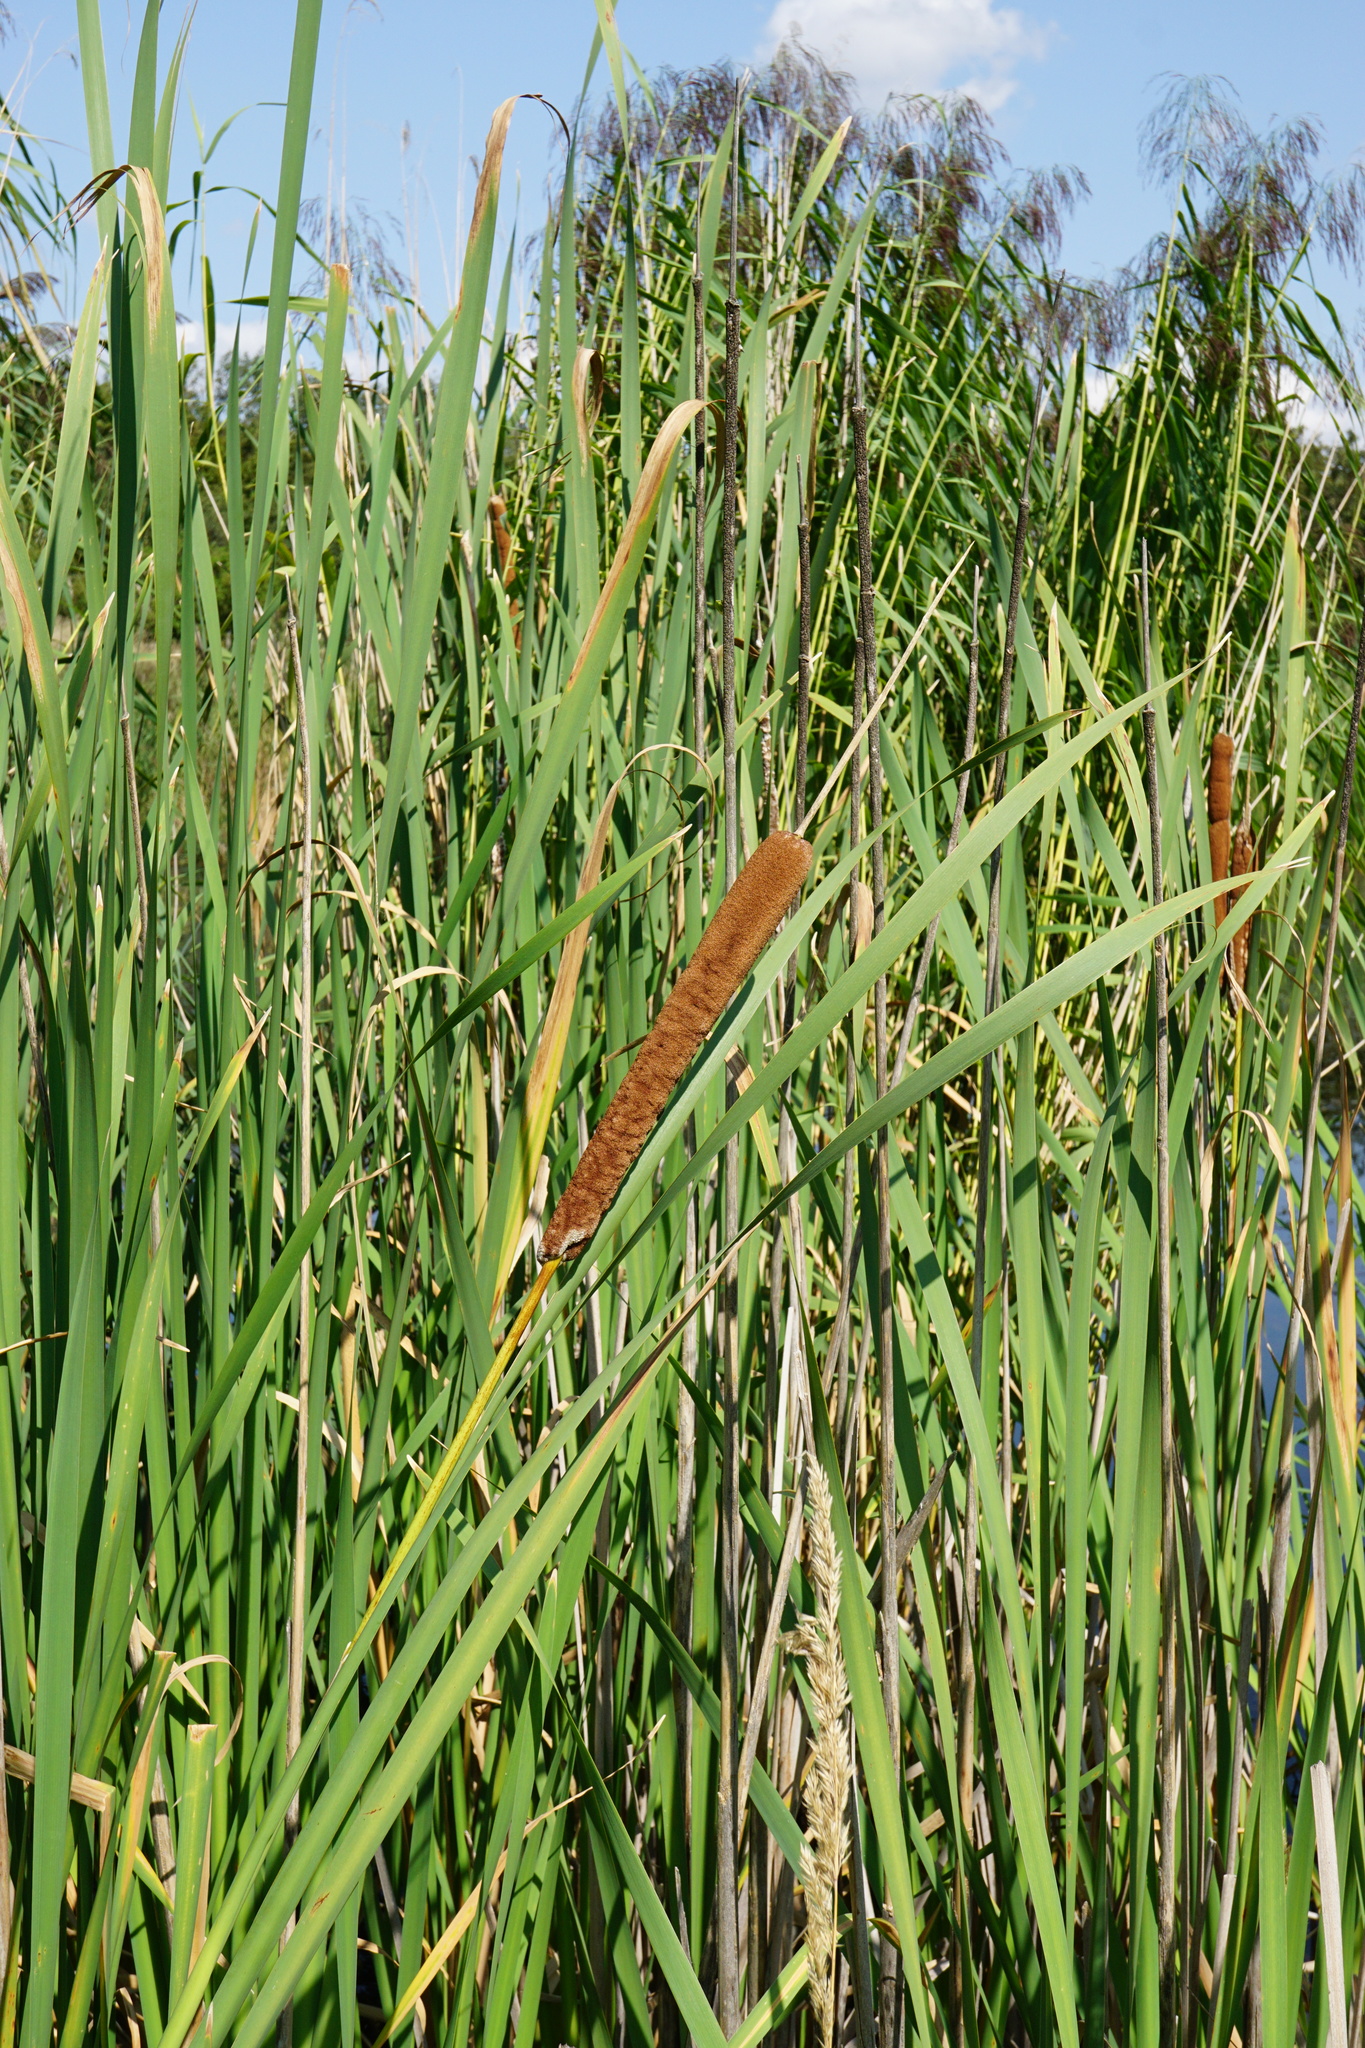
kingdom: Plantae
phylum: Tracheophyta
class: Liliopsida
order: Poales
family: Typhaceae
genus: Typha
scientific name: Typha latifolia
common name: Broadleaf cattail
